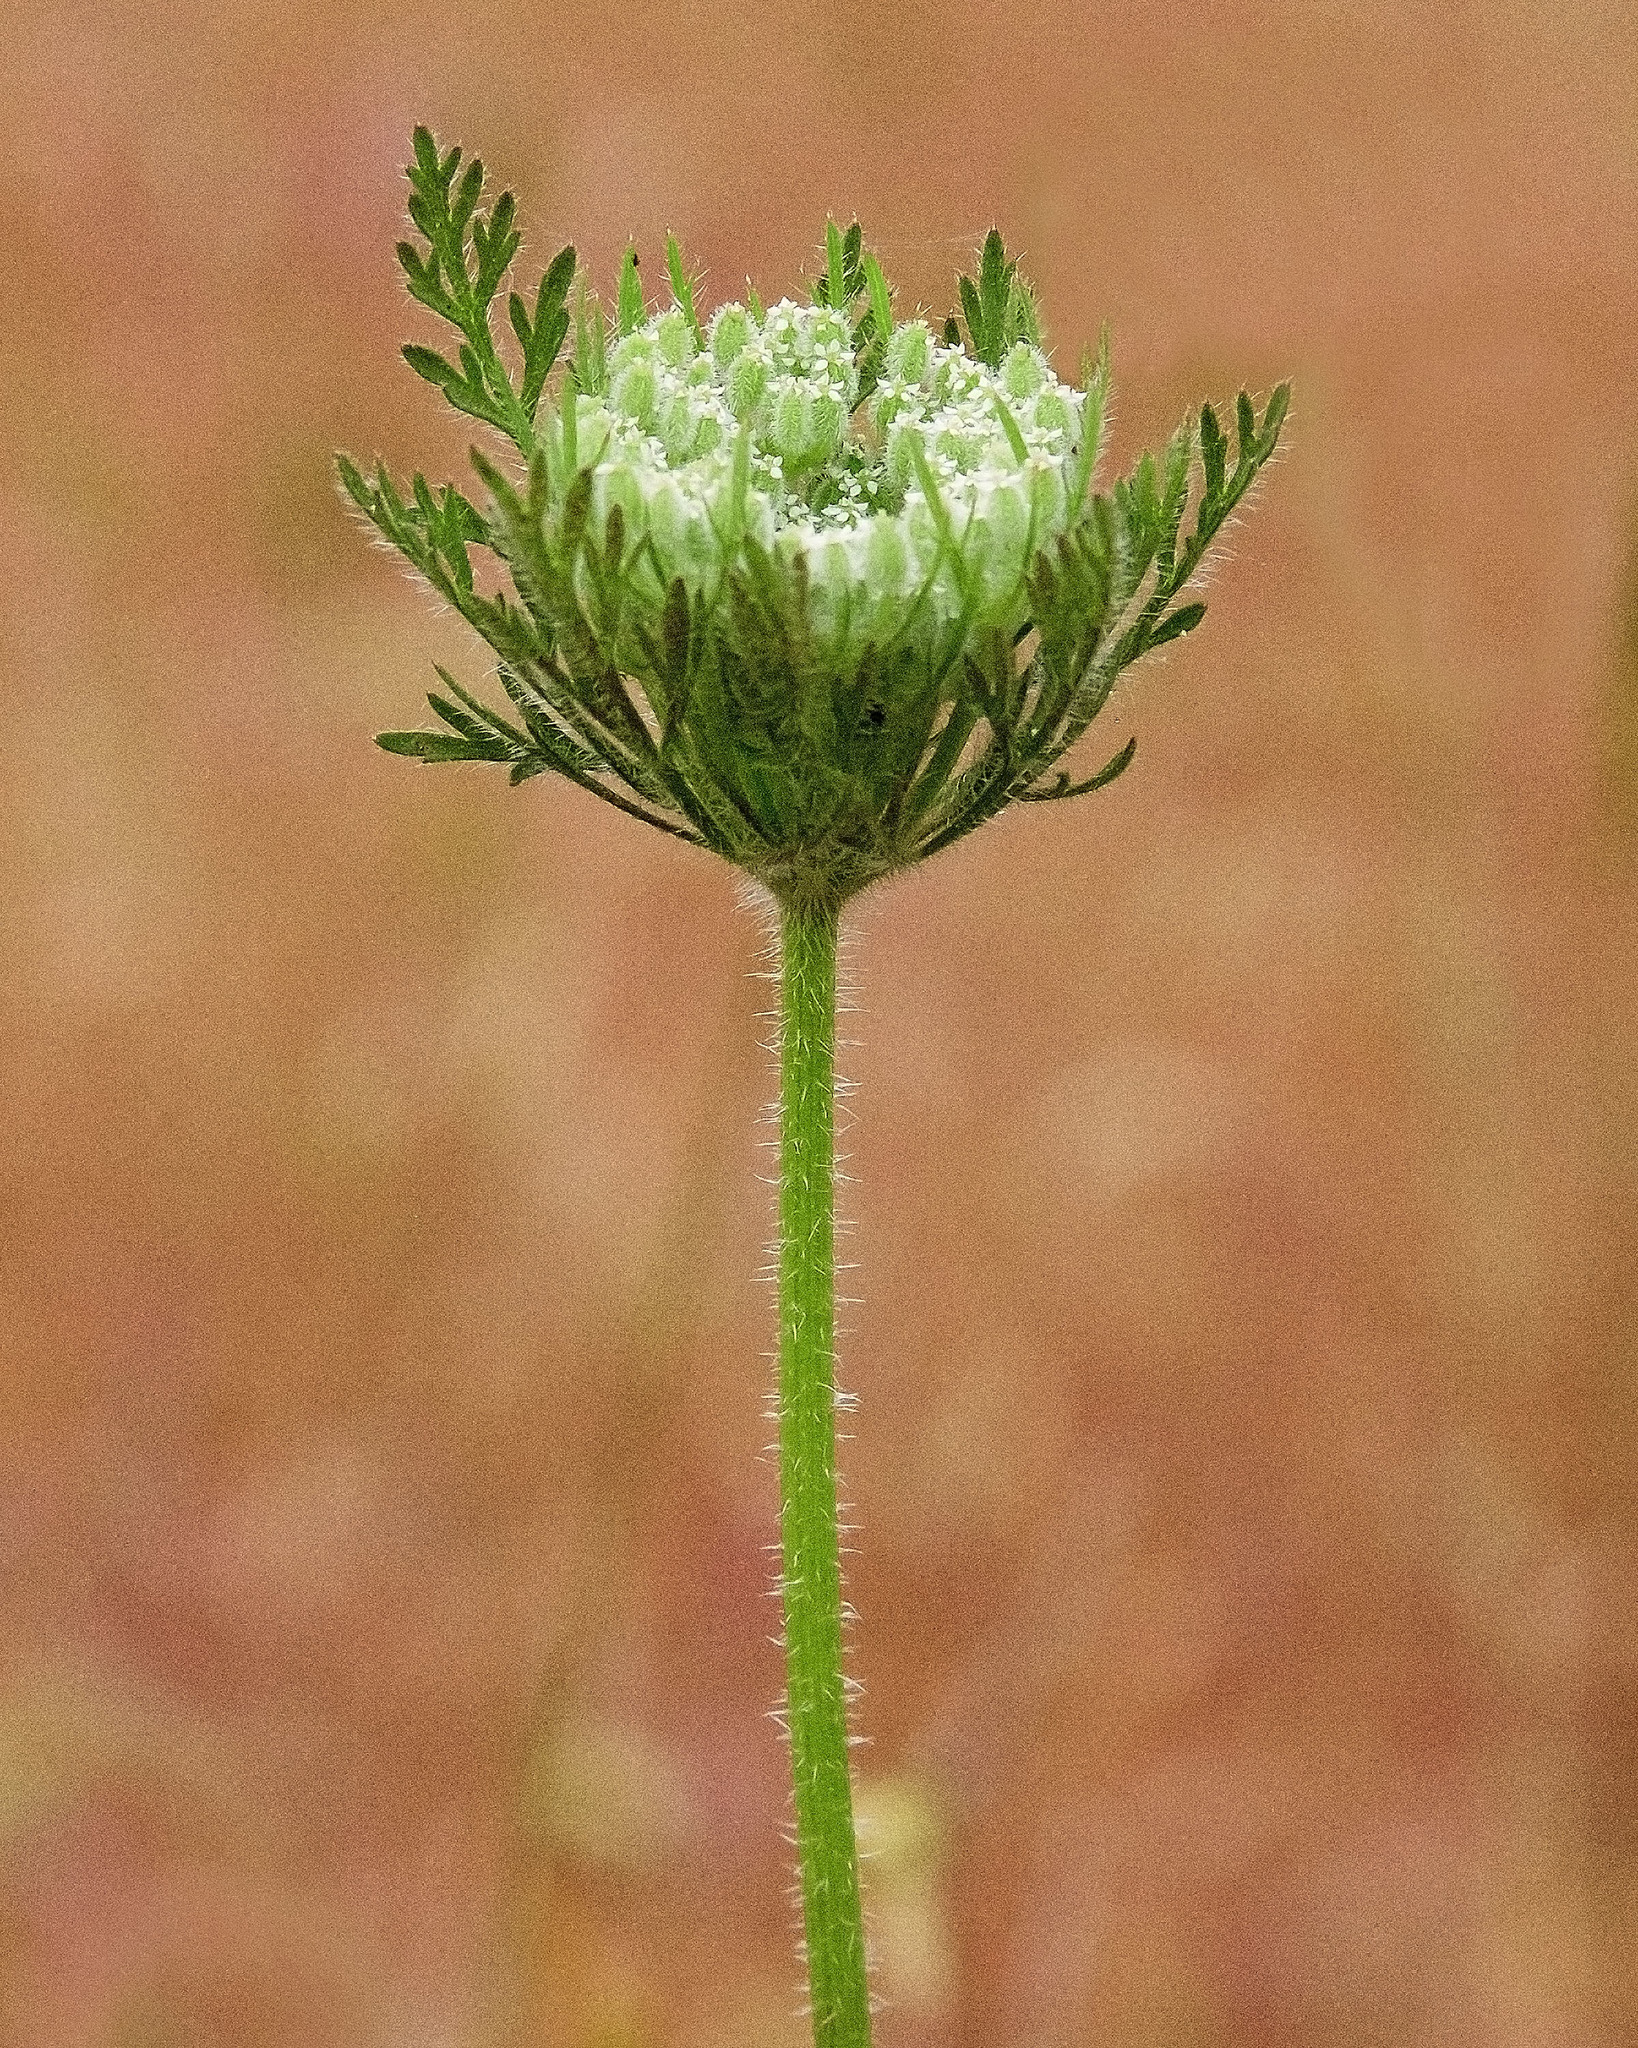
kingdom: Plantae
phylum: Tracheophyta
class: Magnoliopsida
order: Apiales
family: Apiaceae
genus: Daucus
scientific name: Daucus pusillus
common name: Southwest wild carrot
